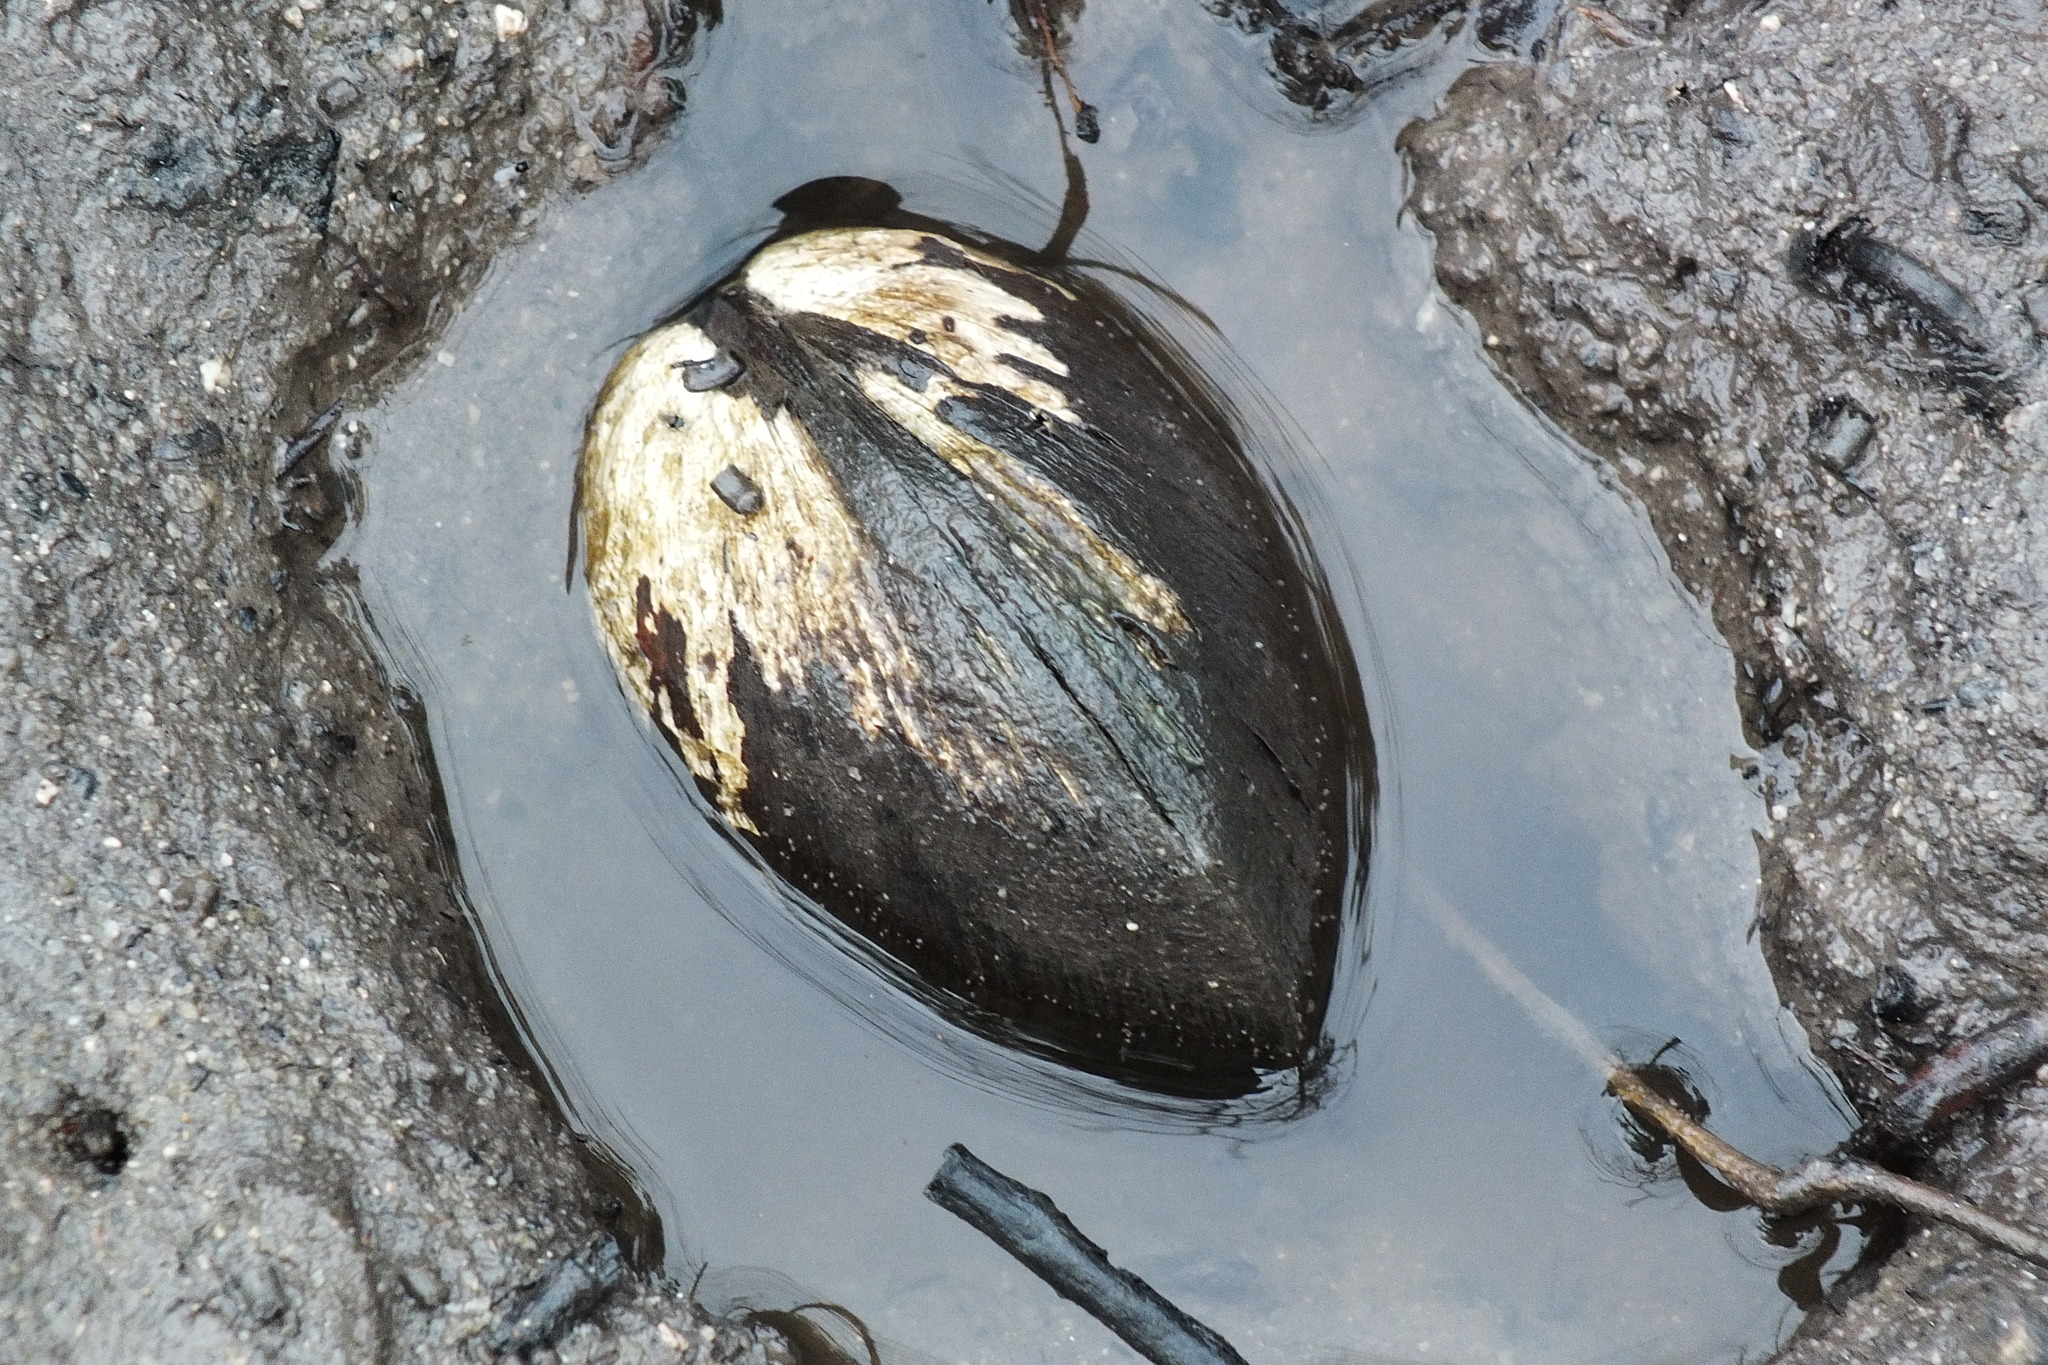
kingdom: Animalia
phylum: Mollusca
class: Bivalvia
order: Venerida
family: Cyrenidae
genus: Geloina
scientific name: Geloina coaxans
